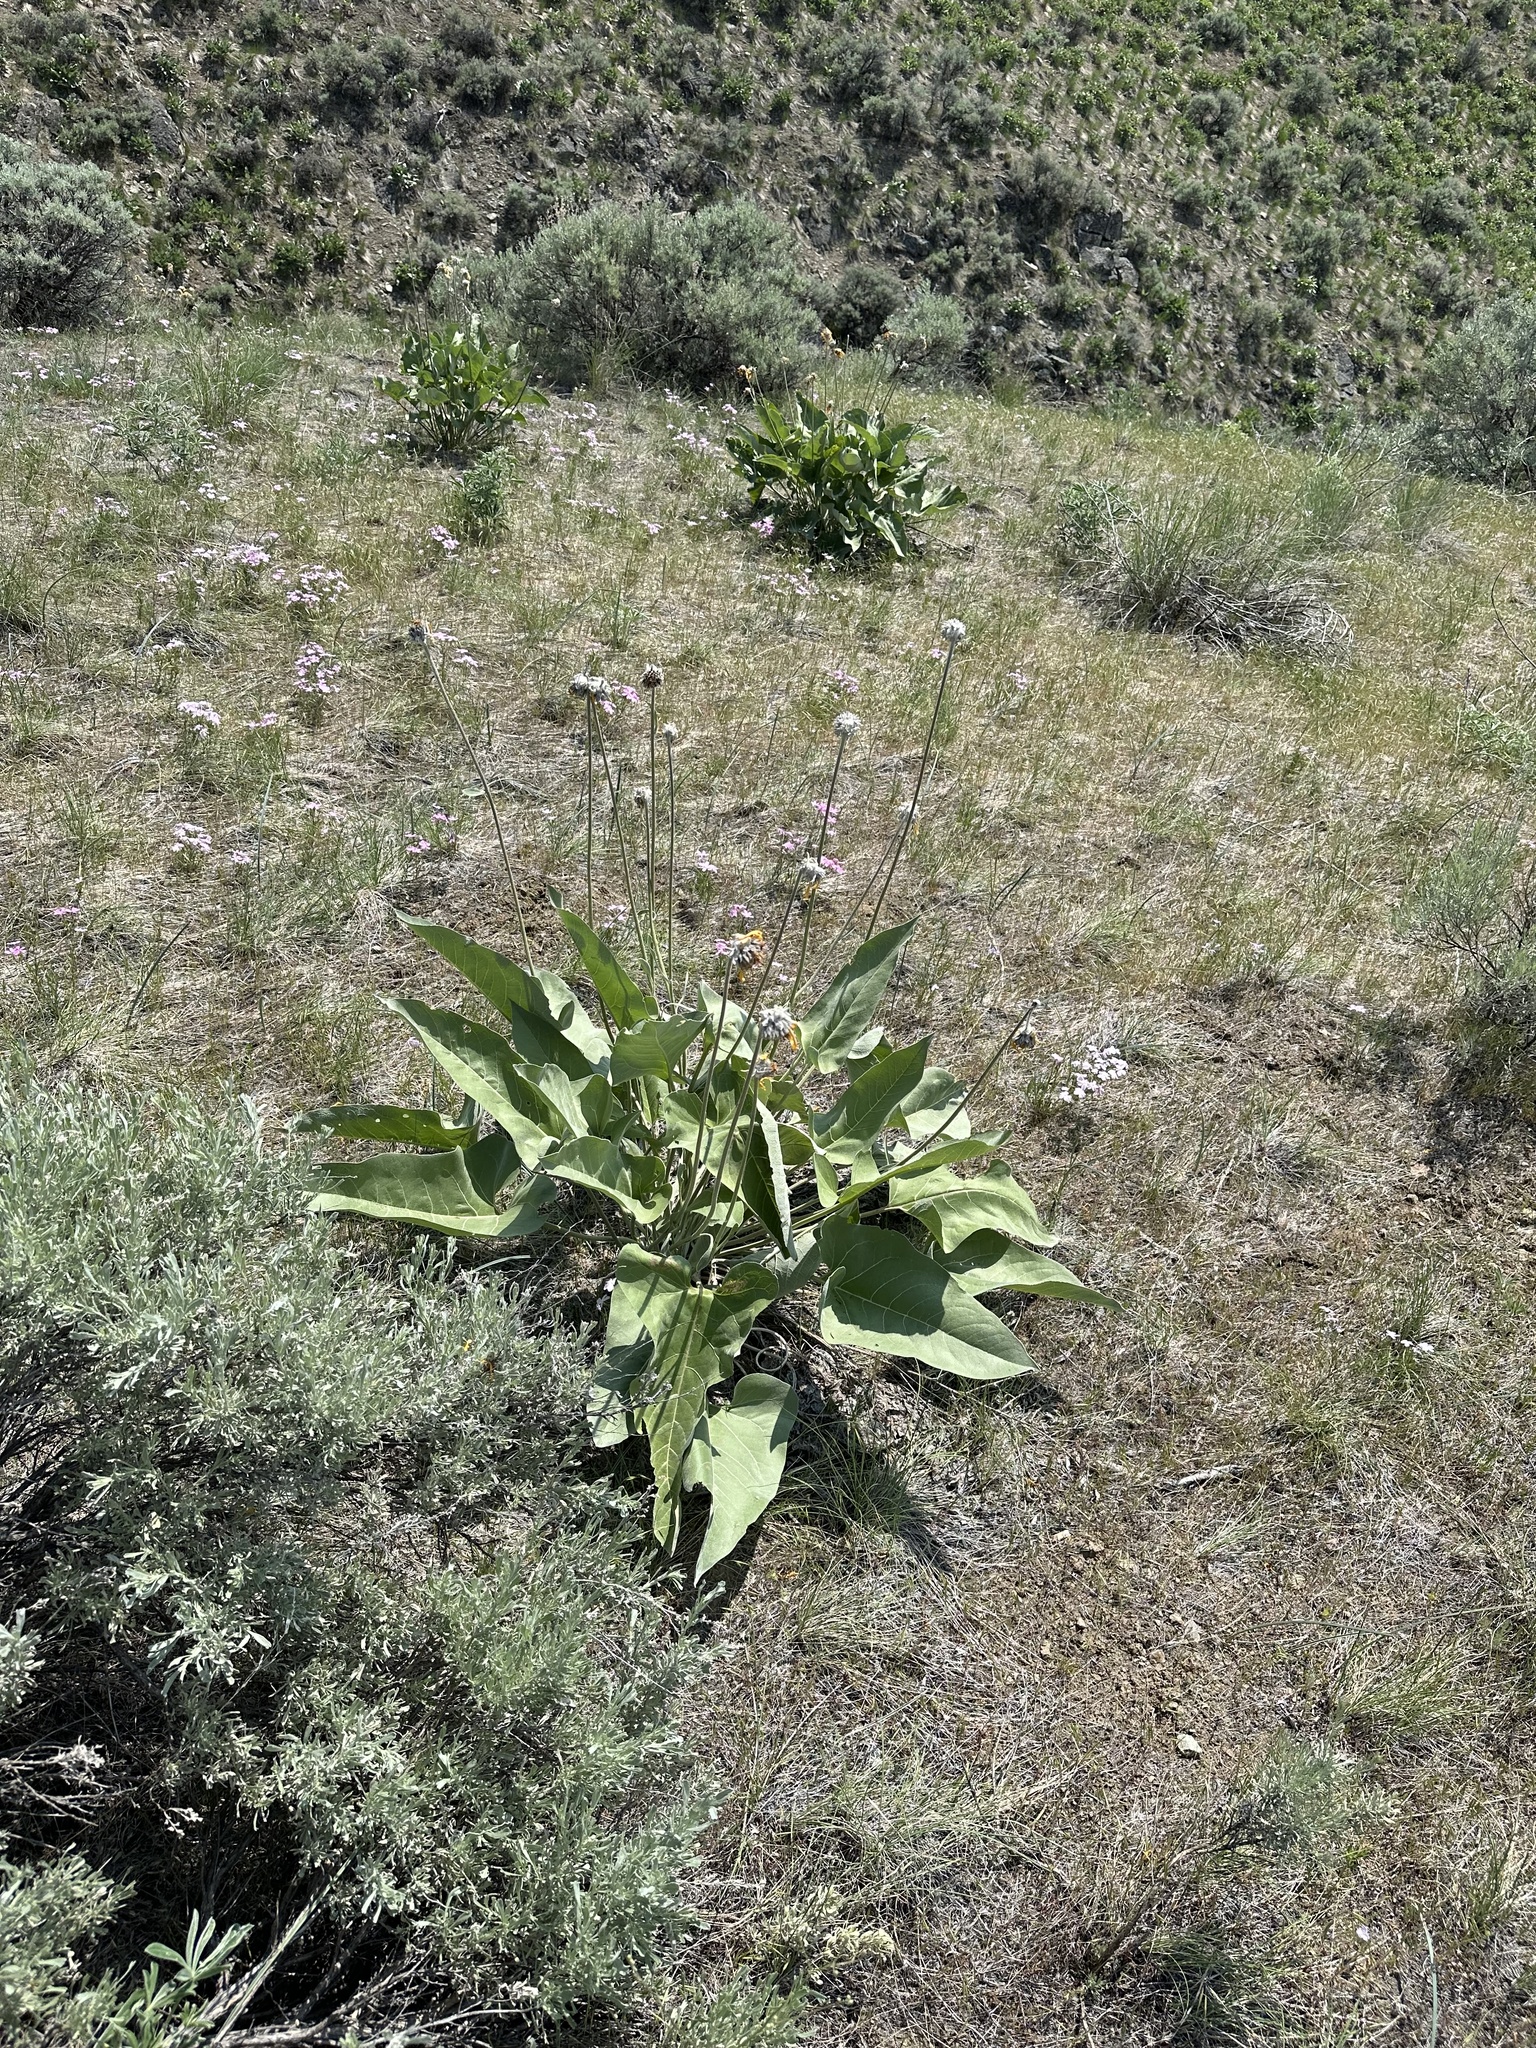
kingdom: Plantae
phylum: Tracheophyta
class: Magnoliopsida
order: Asterales
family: Asteraceae
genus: Wyethia
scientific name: Wyethia sagittata
